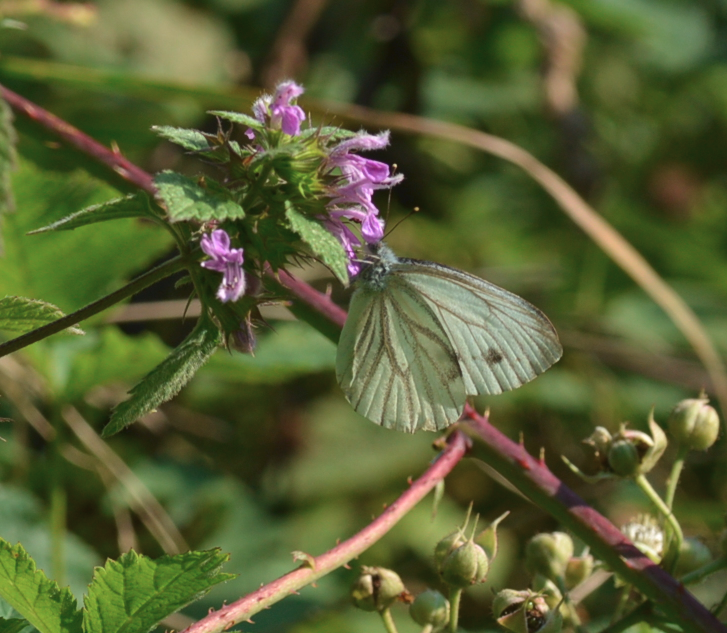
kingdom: Animalia
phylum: Arthropoda
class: Insecta
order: Lepidoptera
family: Pieridae
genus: Pieris
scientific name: Pieris napi
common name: Green-veined white
